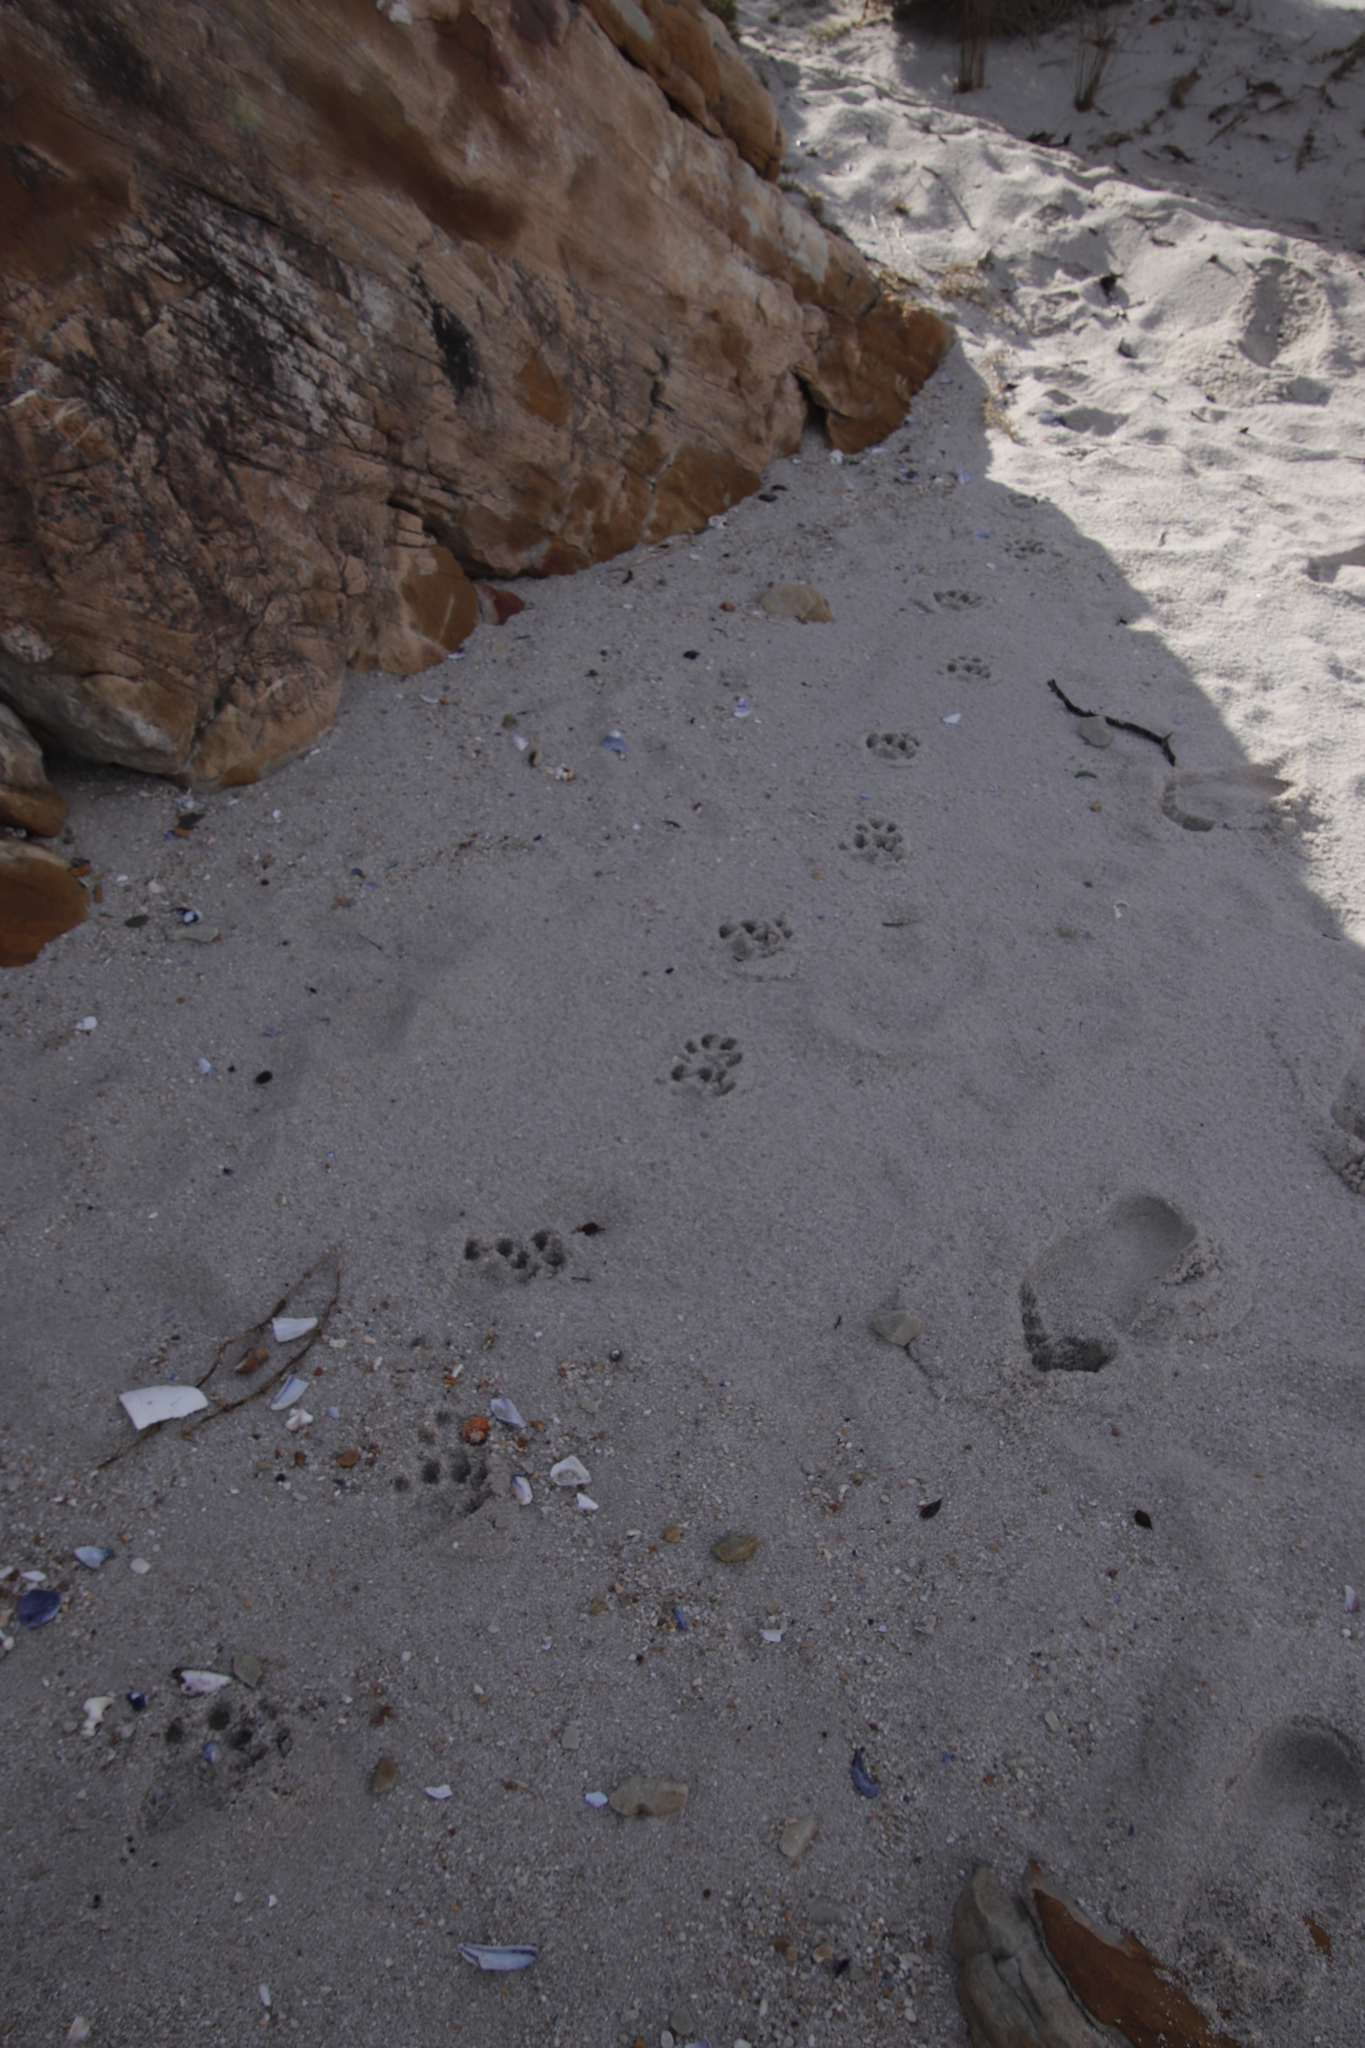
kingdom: Animalia
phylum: Chordata
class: Mammalia
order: Carnivora
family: Mustelidae
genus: Aonyx
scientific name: Aonyx capensis
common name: African clawless otter
